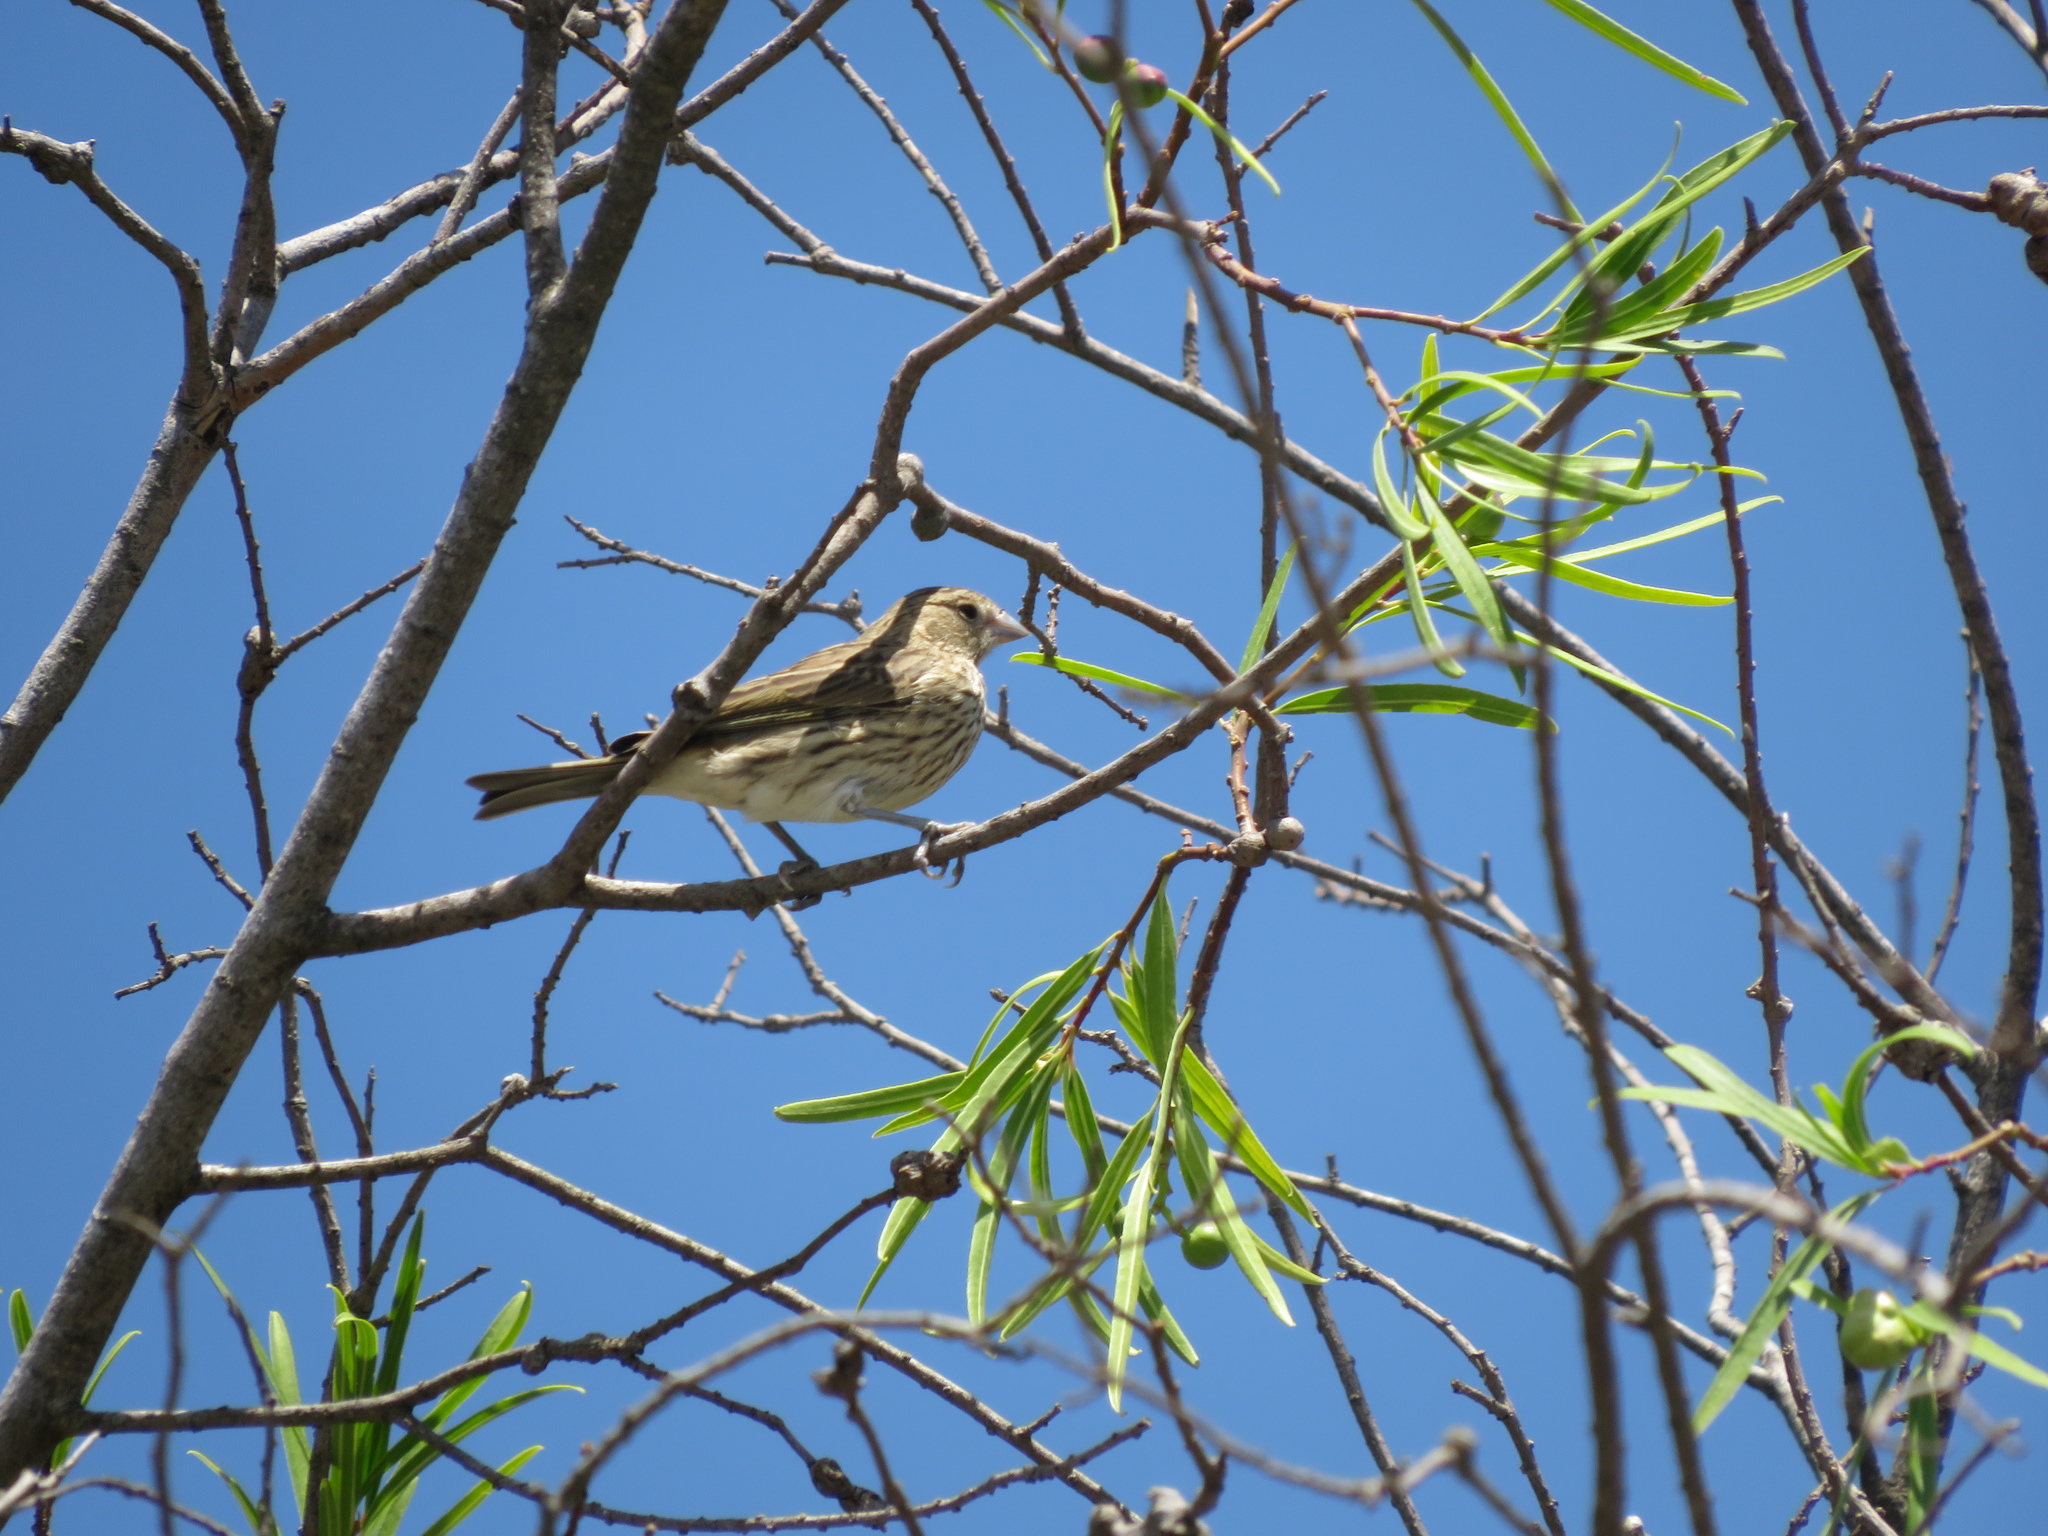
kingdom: Animalia
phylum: Chordata
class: Aves
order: Passeriformes
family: Thraupidae
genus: Sicalis
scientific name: Sicalis flaveola
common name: Saffron finch
